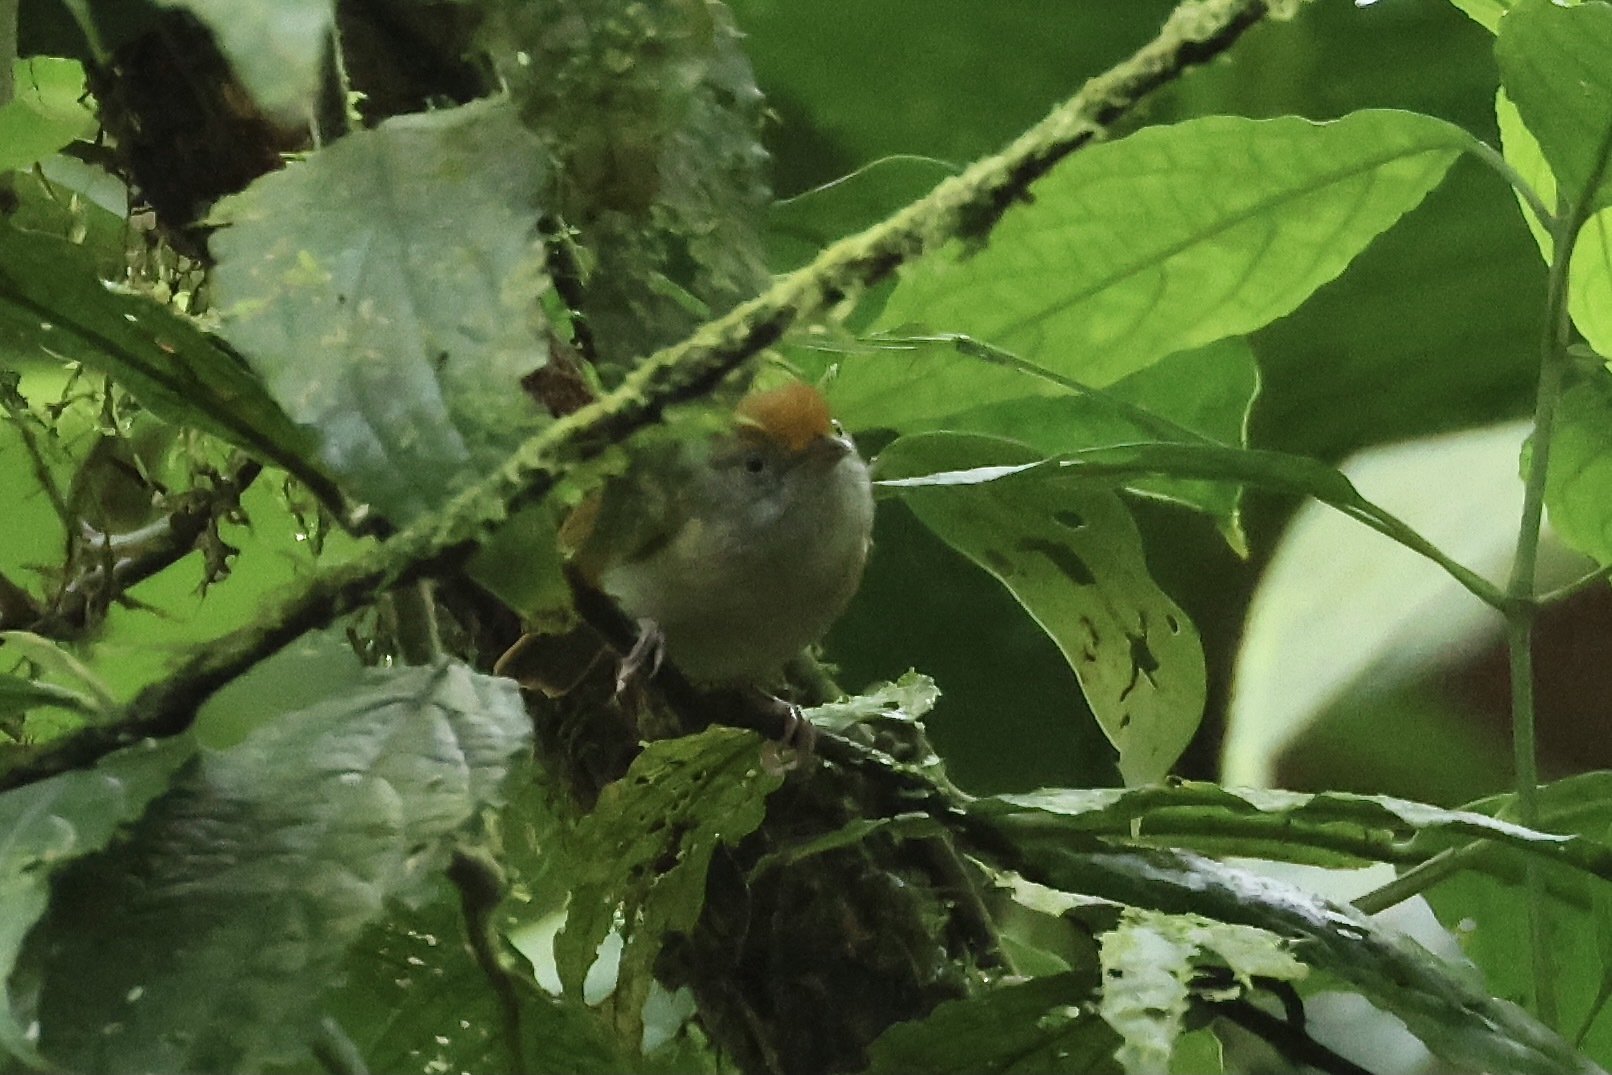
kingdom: Animalia
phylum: Chordata
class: Aves
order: Passeriformes
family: Thamnophilidae
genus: Dysithamnus
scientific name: Dysithamnus mentalis
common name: Plain antvireo
